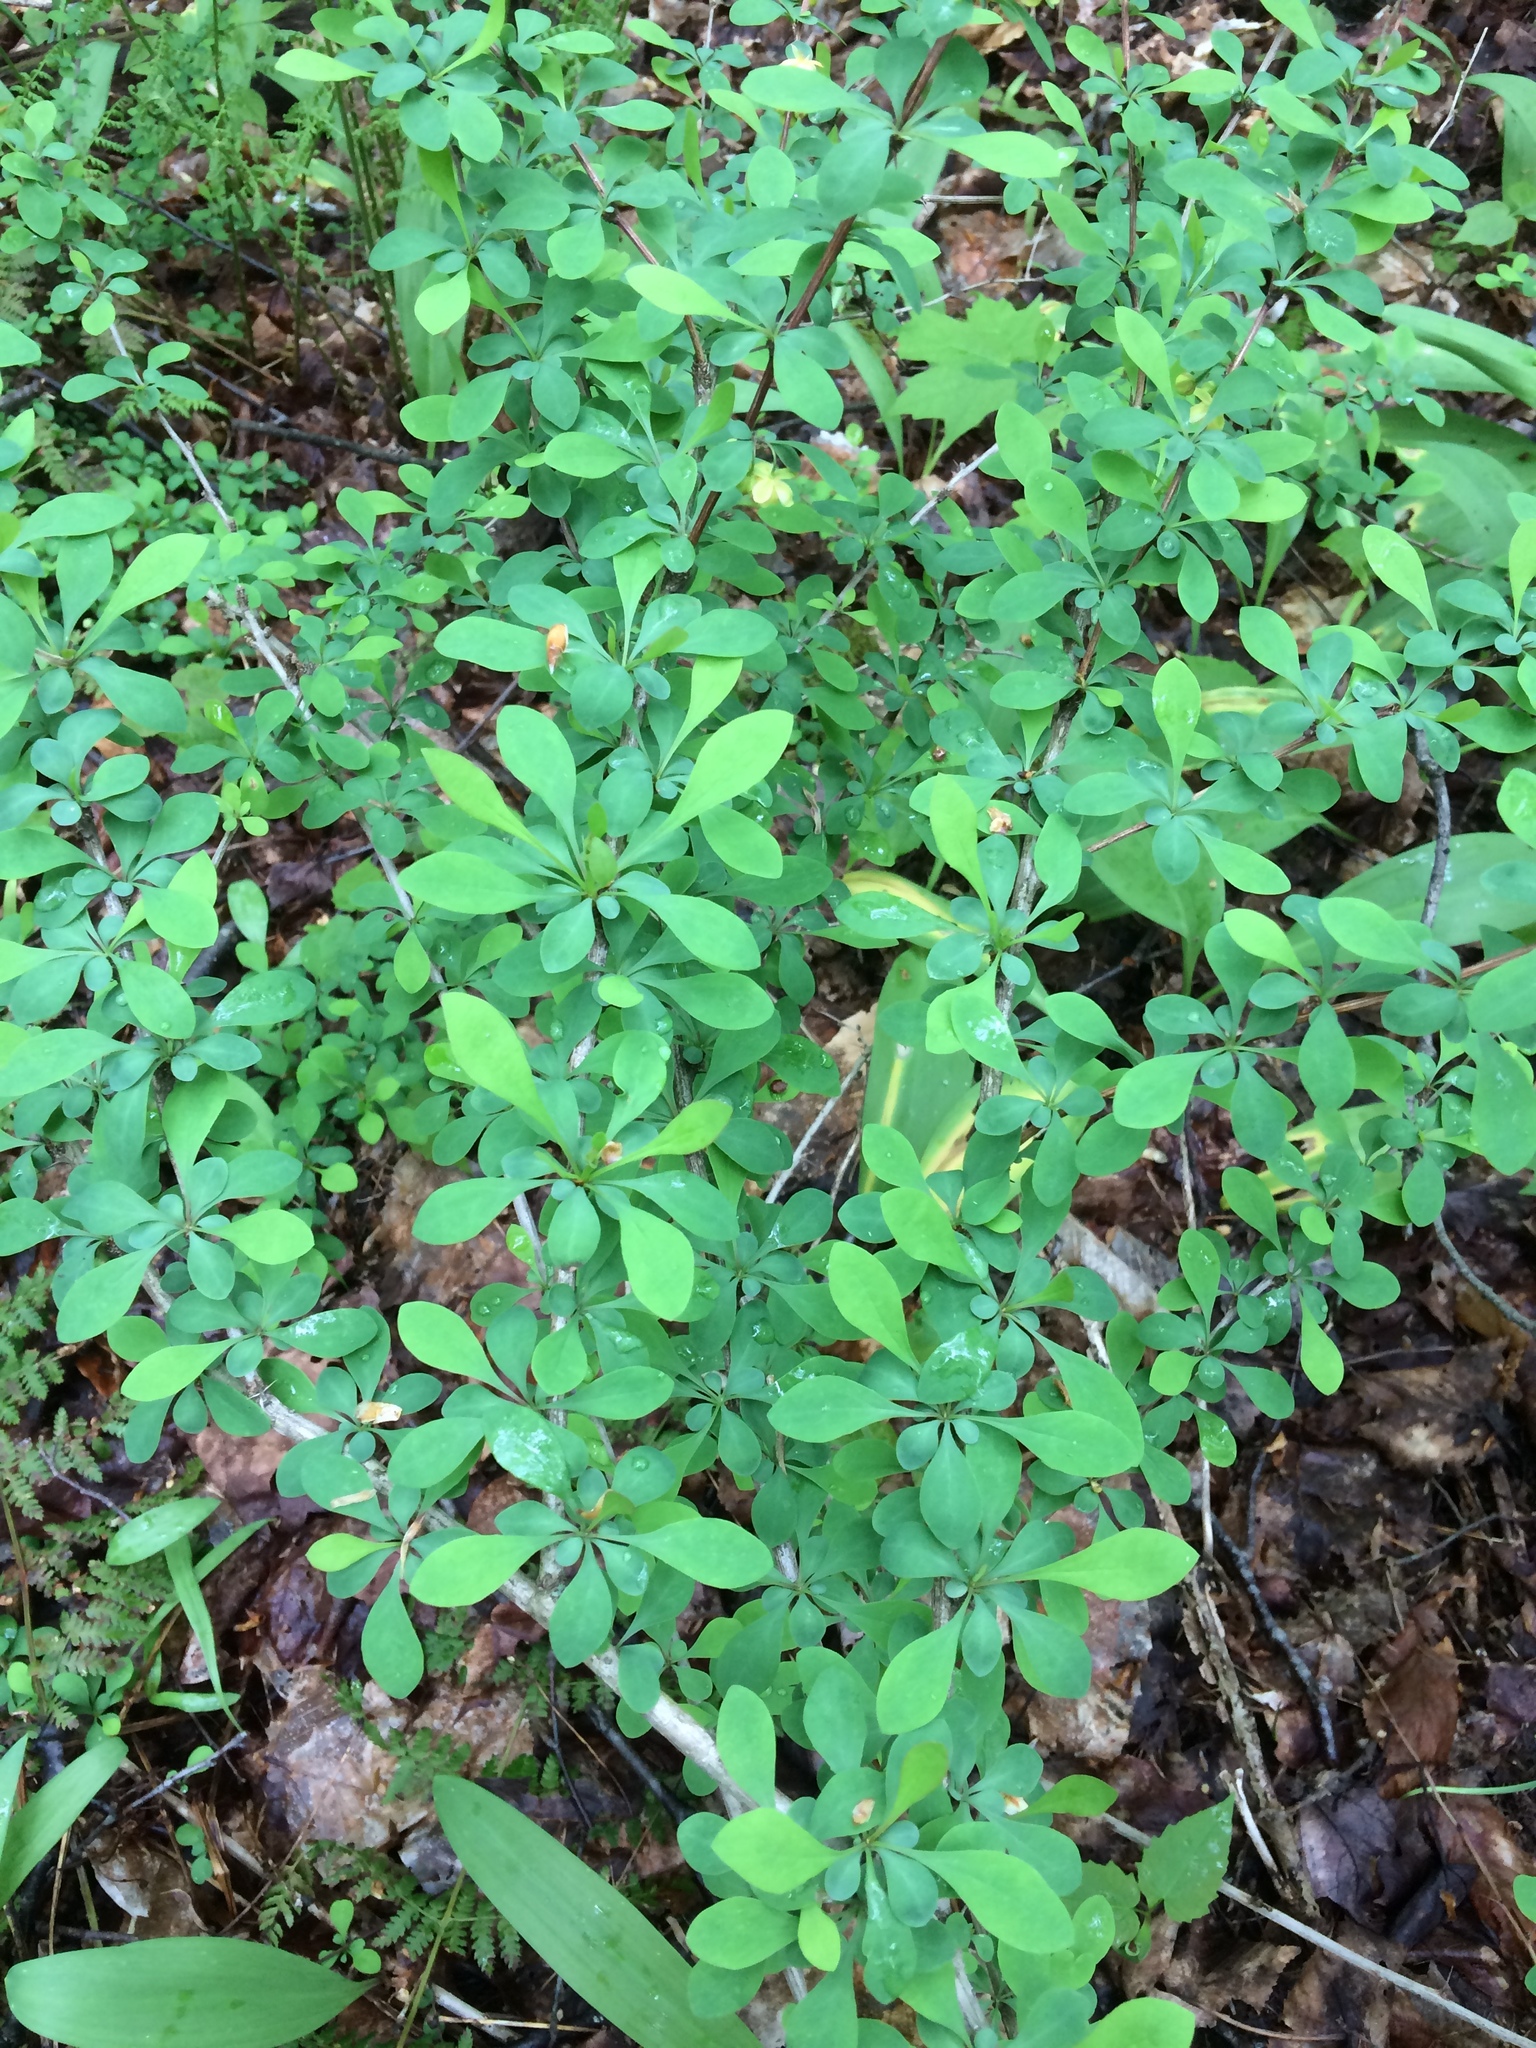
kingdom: Plantae
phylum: Tracheophyta
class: Magnoliopsida
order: Ranunculales
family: Berberidaceae
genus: Berberis
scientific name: Berberis thunbergii
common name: Japanese barberry
